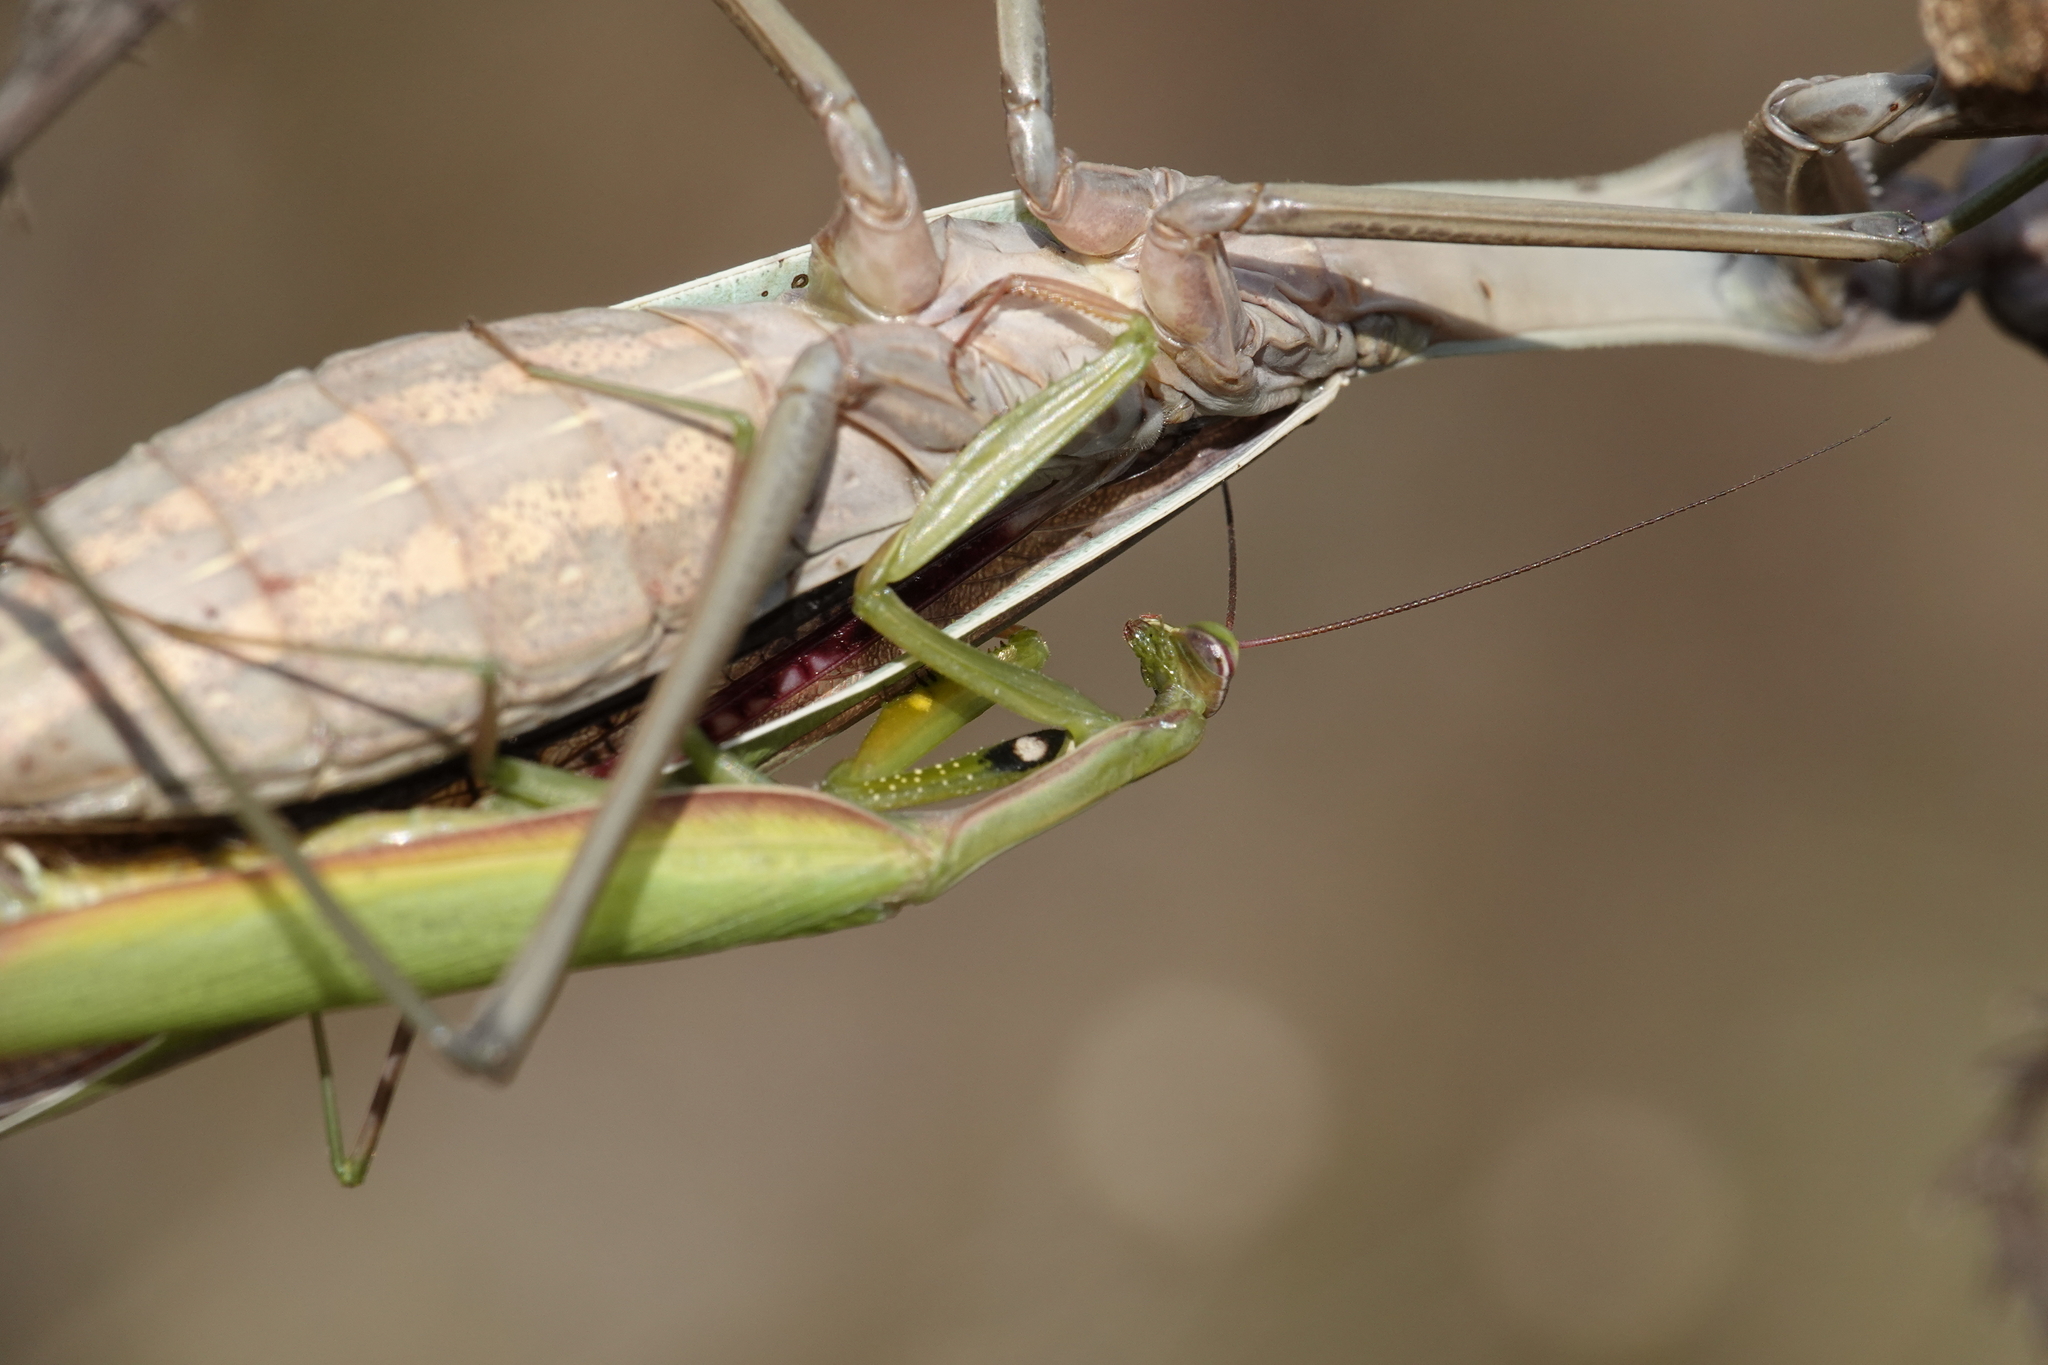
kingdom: Animalia
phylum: Arthropoda
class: Insecta
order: Mantodea
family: Mantidae
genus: Mantis
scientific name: Mantis religiosa
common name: Praying mantis
